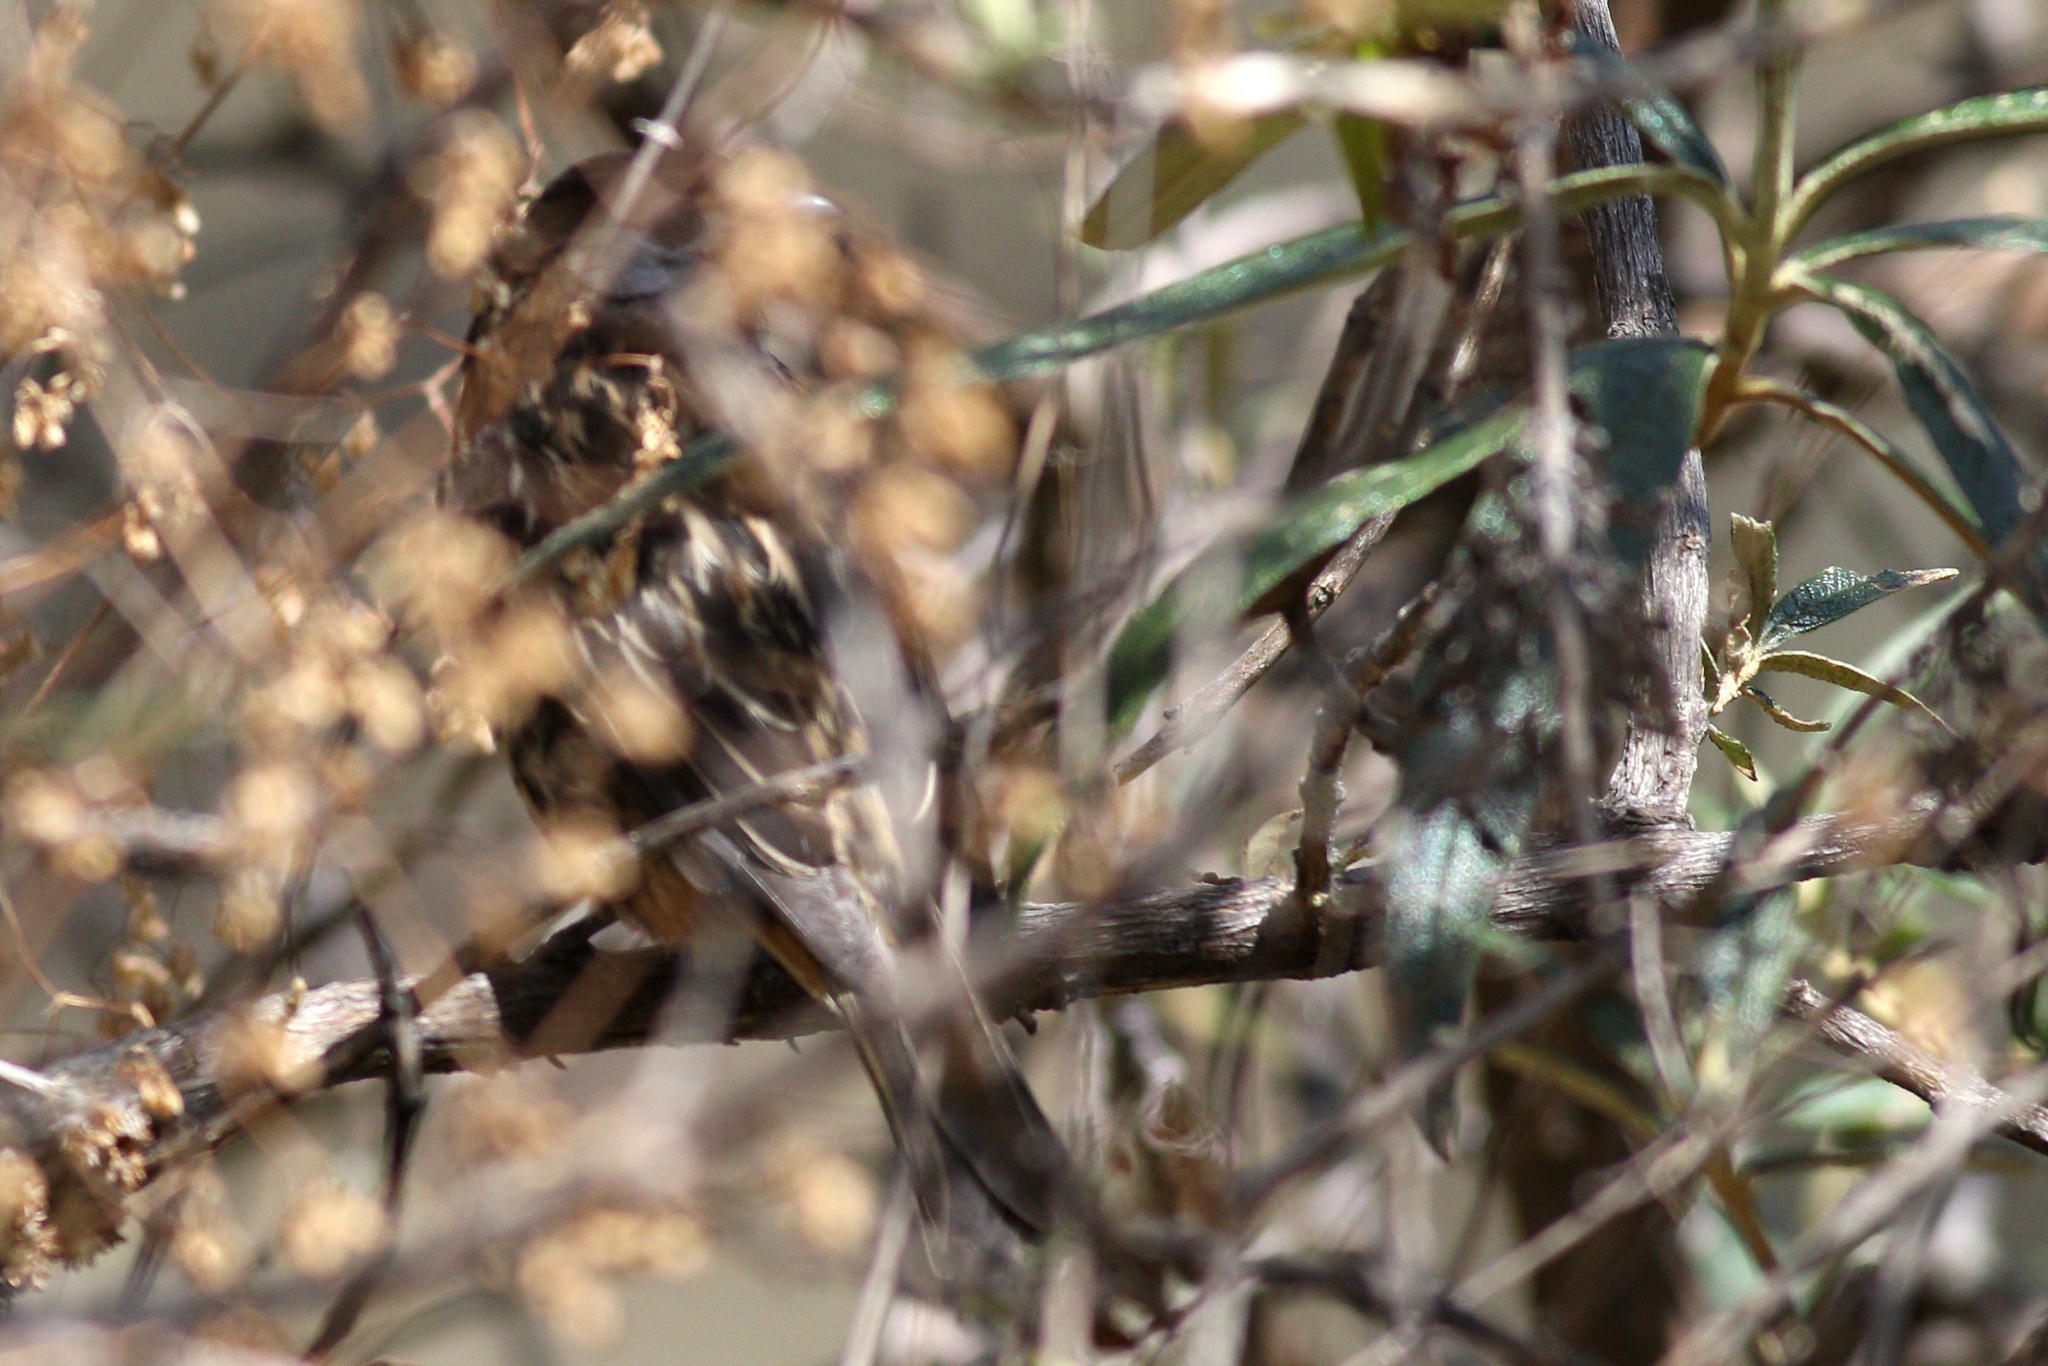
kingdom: Animalia
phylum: Chordata
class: Aves
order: Passeriformes
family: Cotingidae
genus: Zaratornis
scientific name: Zaratornis stresemanni
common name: White-cheeked cotinga
